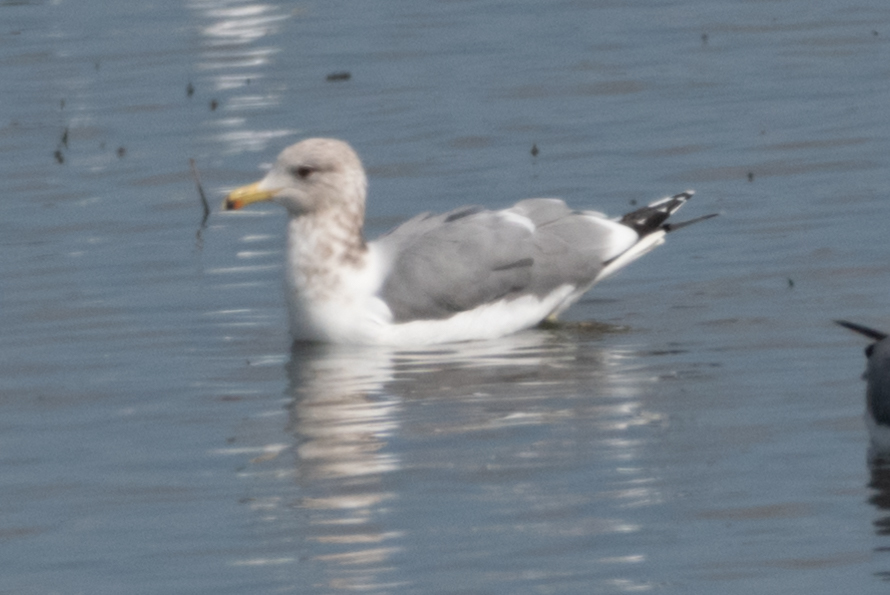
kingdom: Animalia
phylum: Chordata
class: Aves
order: Charadriiformes
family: Laridae
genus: Larus
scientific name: Larus californicus
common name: California gull
